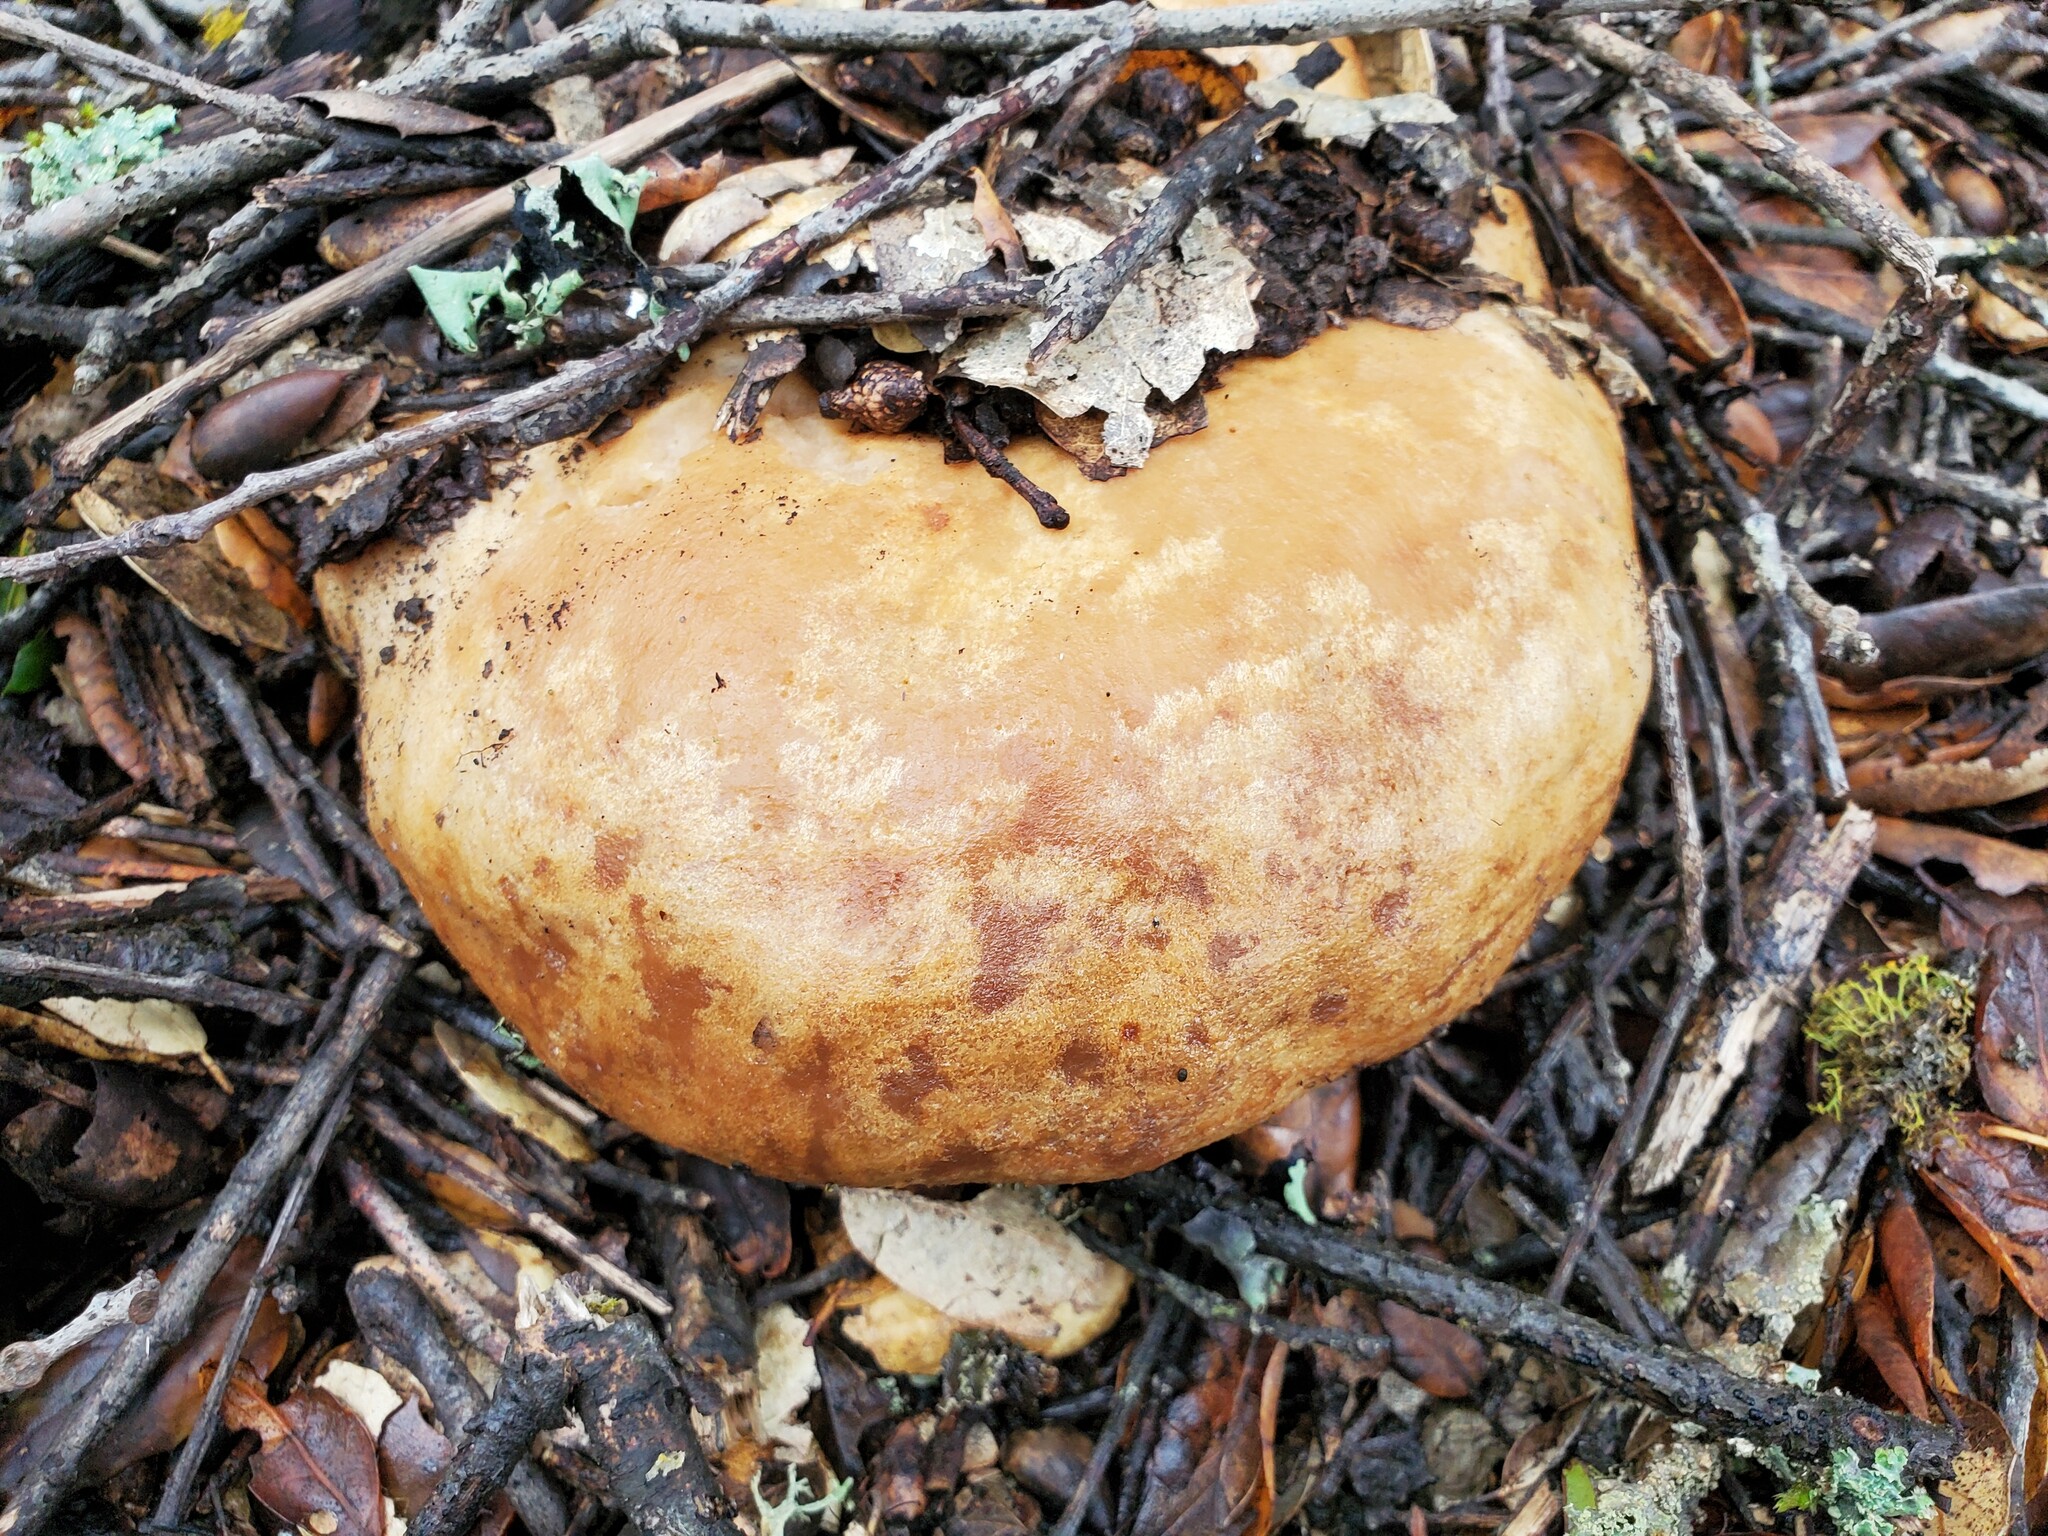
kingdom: Fungi
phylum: Basidiomycota
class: Agaricomycetes
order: Russulales
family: Russulaceae
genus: Lactarius
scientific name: Lactarius argillaceifolius
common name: Clay-gilled milkcap
